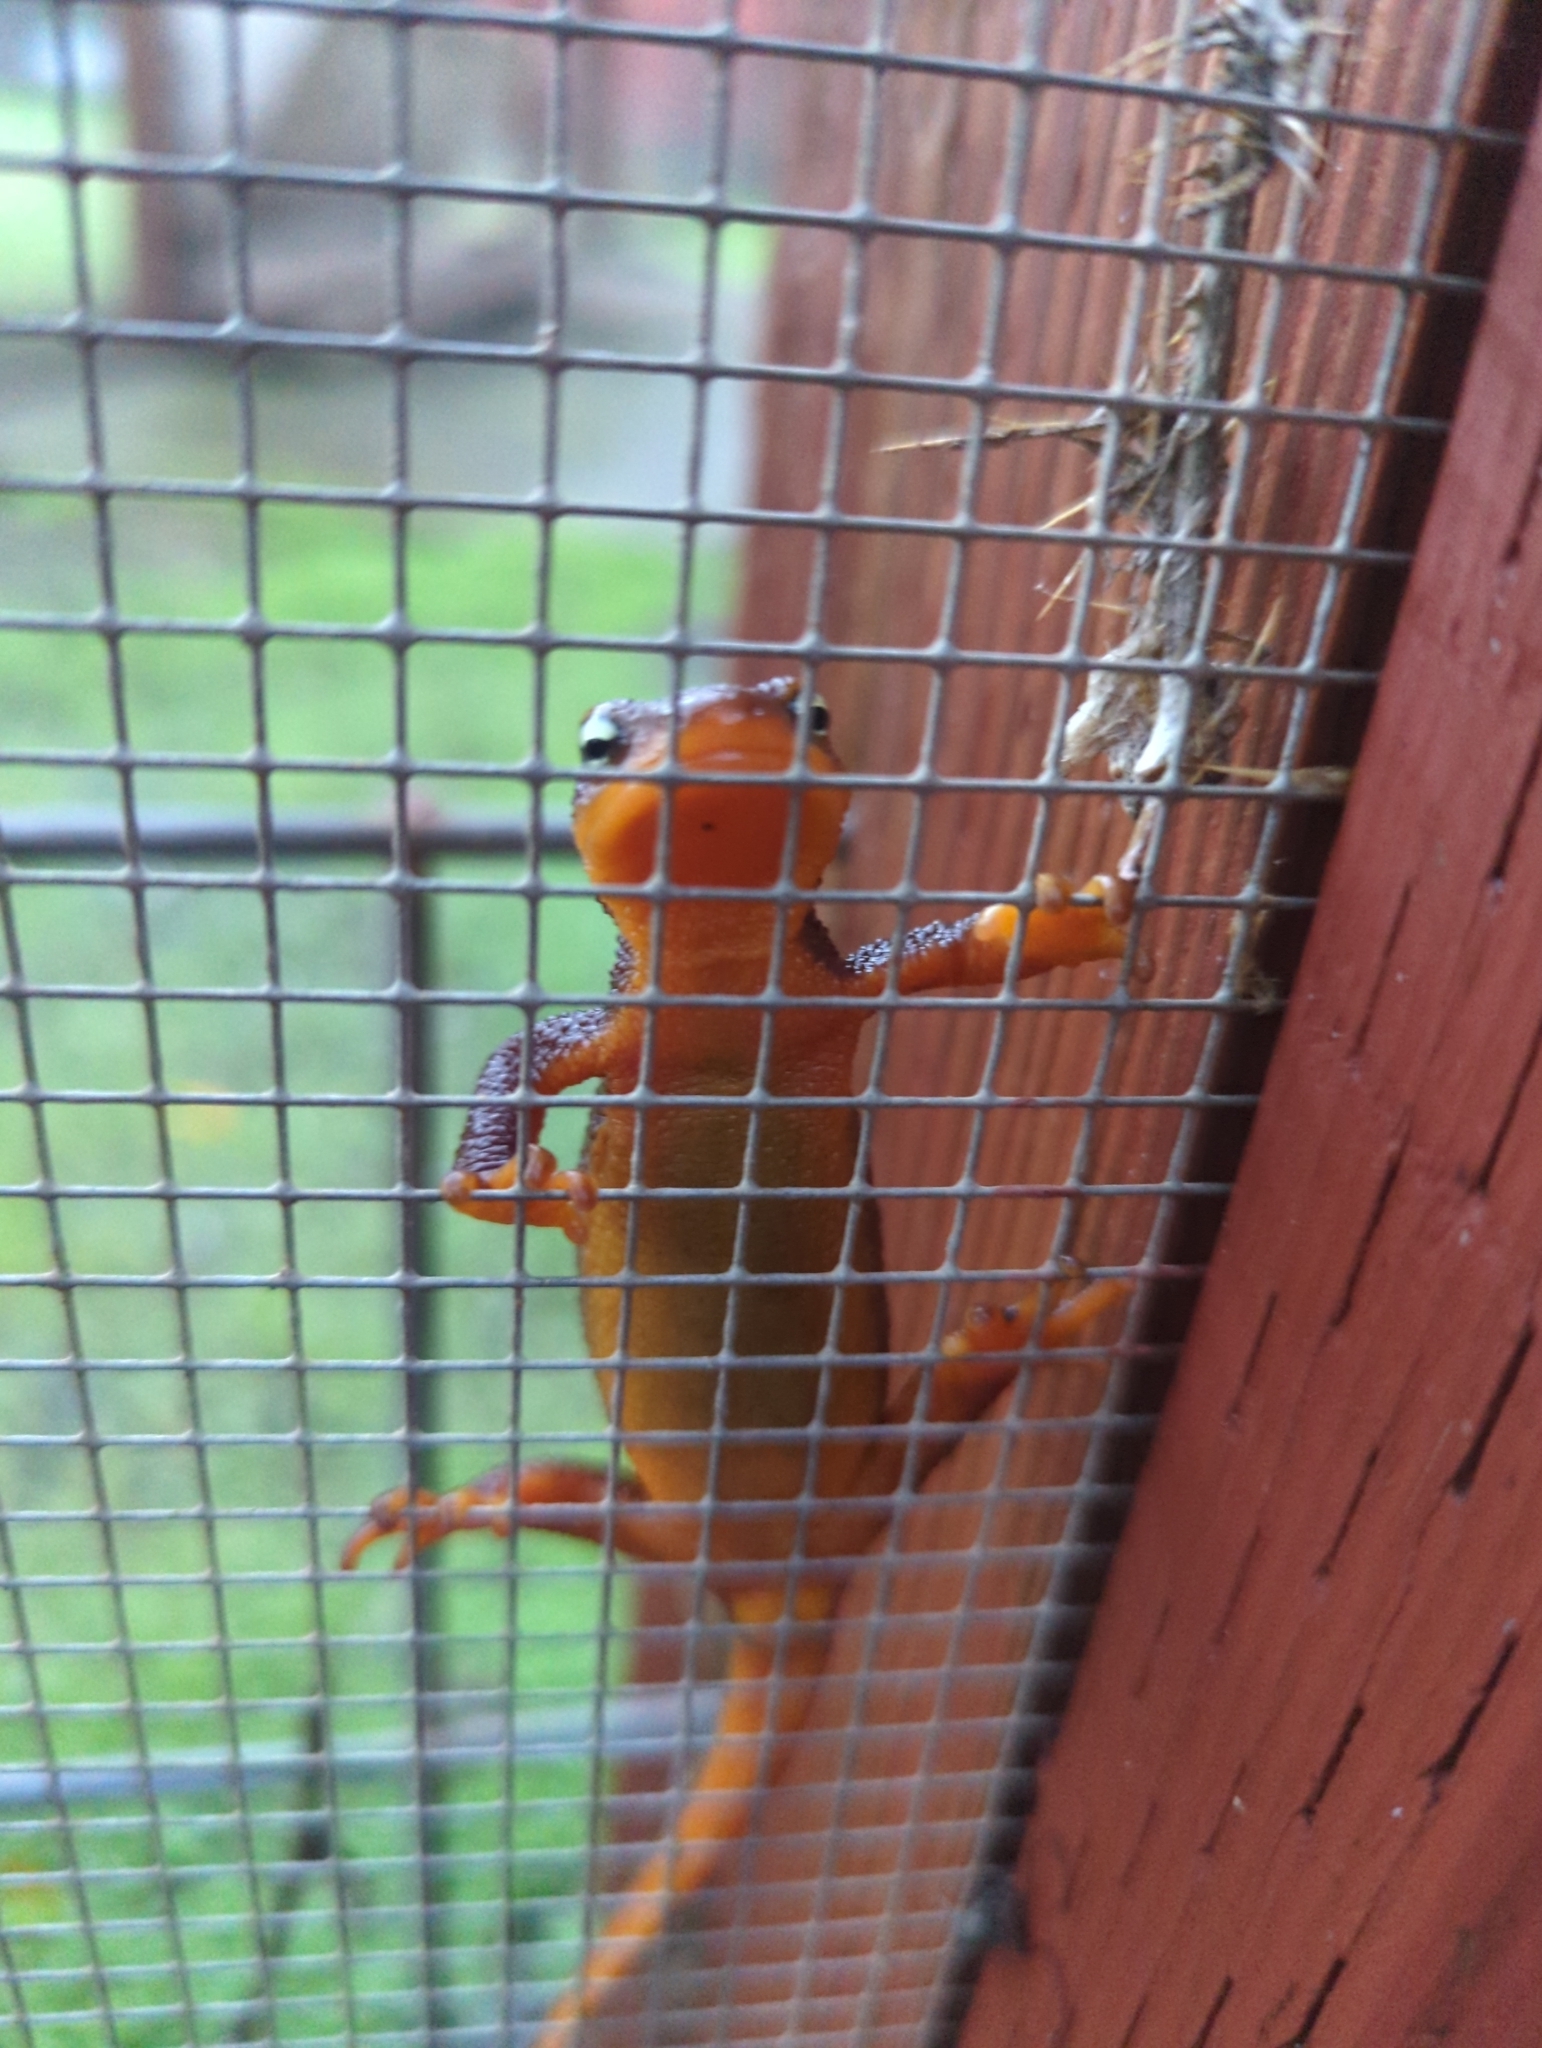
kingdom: Animalia
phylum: Chordata
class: Amphibia
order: Caudata
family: Salamandridae
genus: Taricha
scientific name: Taricha torosa
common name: California newt
